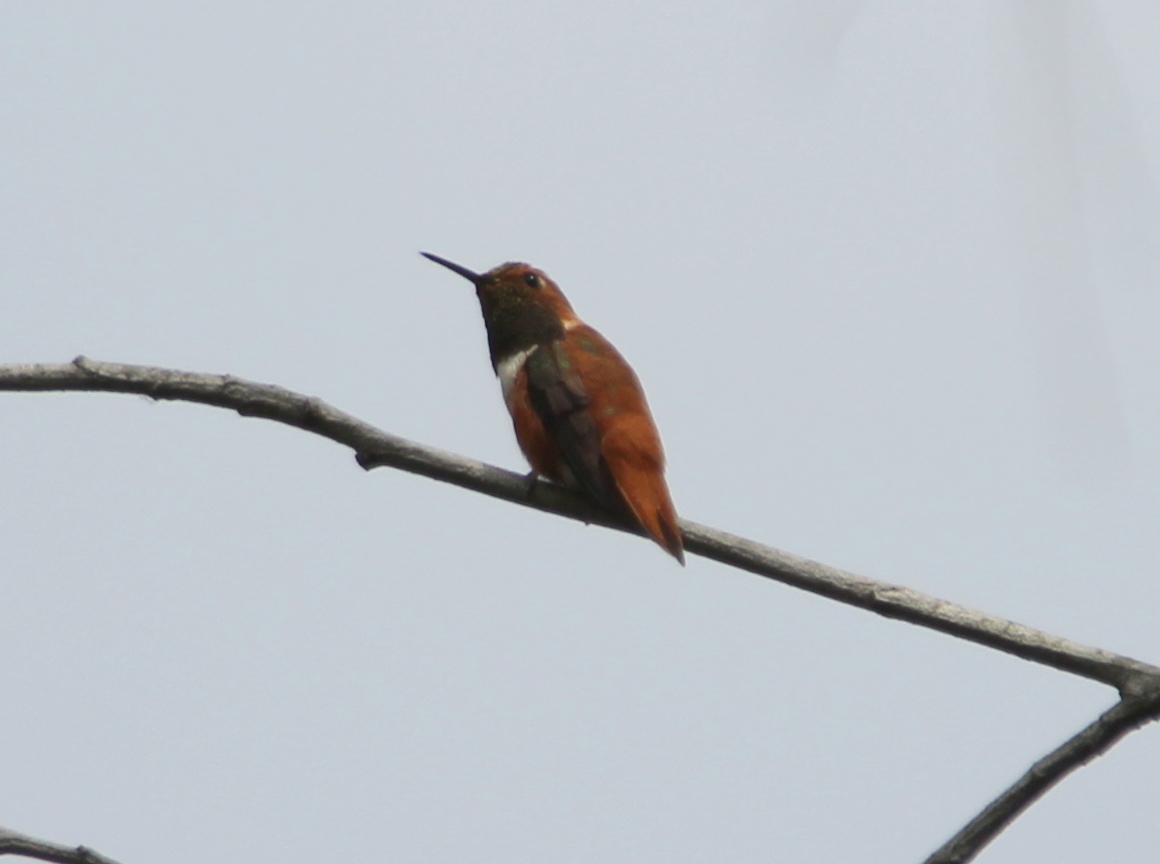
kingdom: Animalia
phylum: Chordata
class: Aves
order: Apodiformes
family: Trochilidae
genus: Selasphorus
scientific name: Selasphorus rufus
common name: Rufous hummingbird
